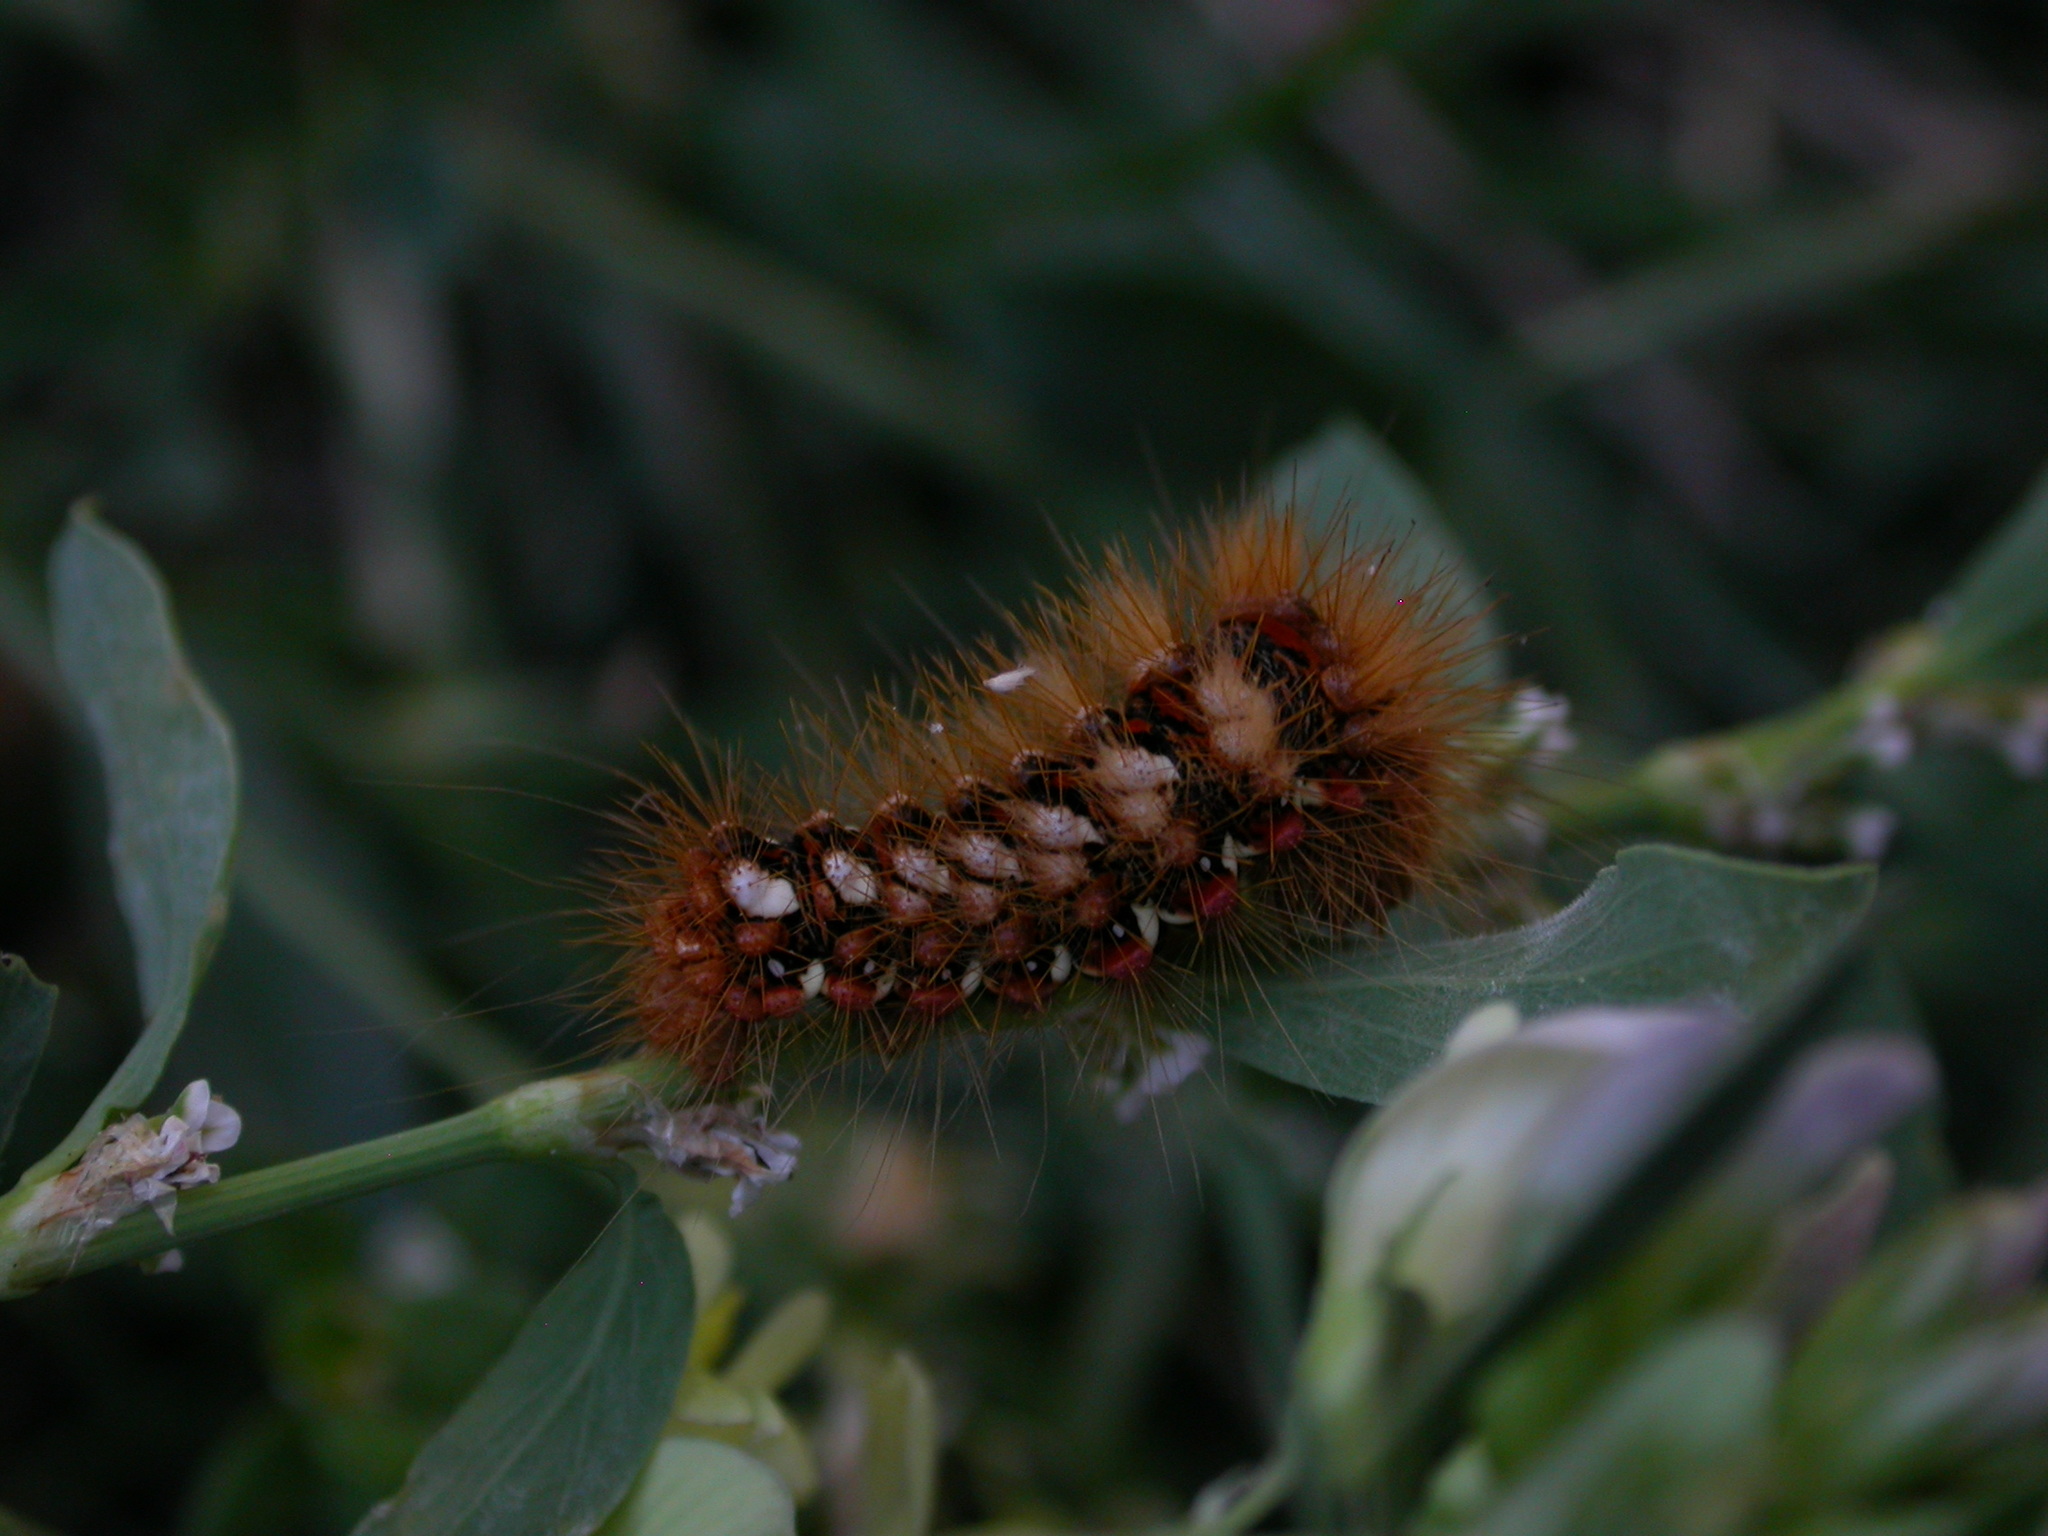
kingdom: Animalia
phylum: Arthropoda
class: Insecta
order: Lepidoptera
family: Noctuidae
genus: Acronicta
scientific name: Acronicta rumicis
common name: Knot grass
